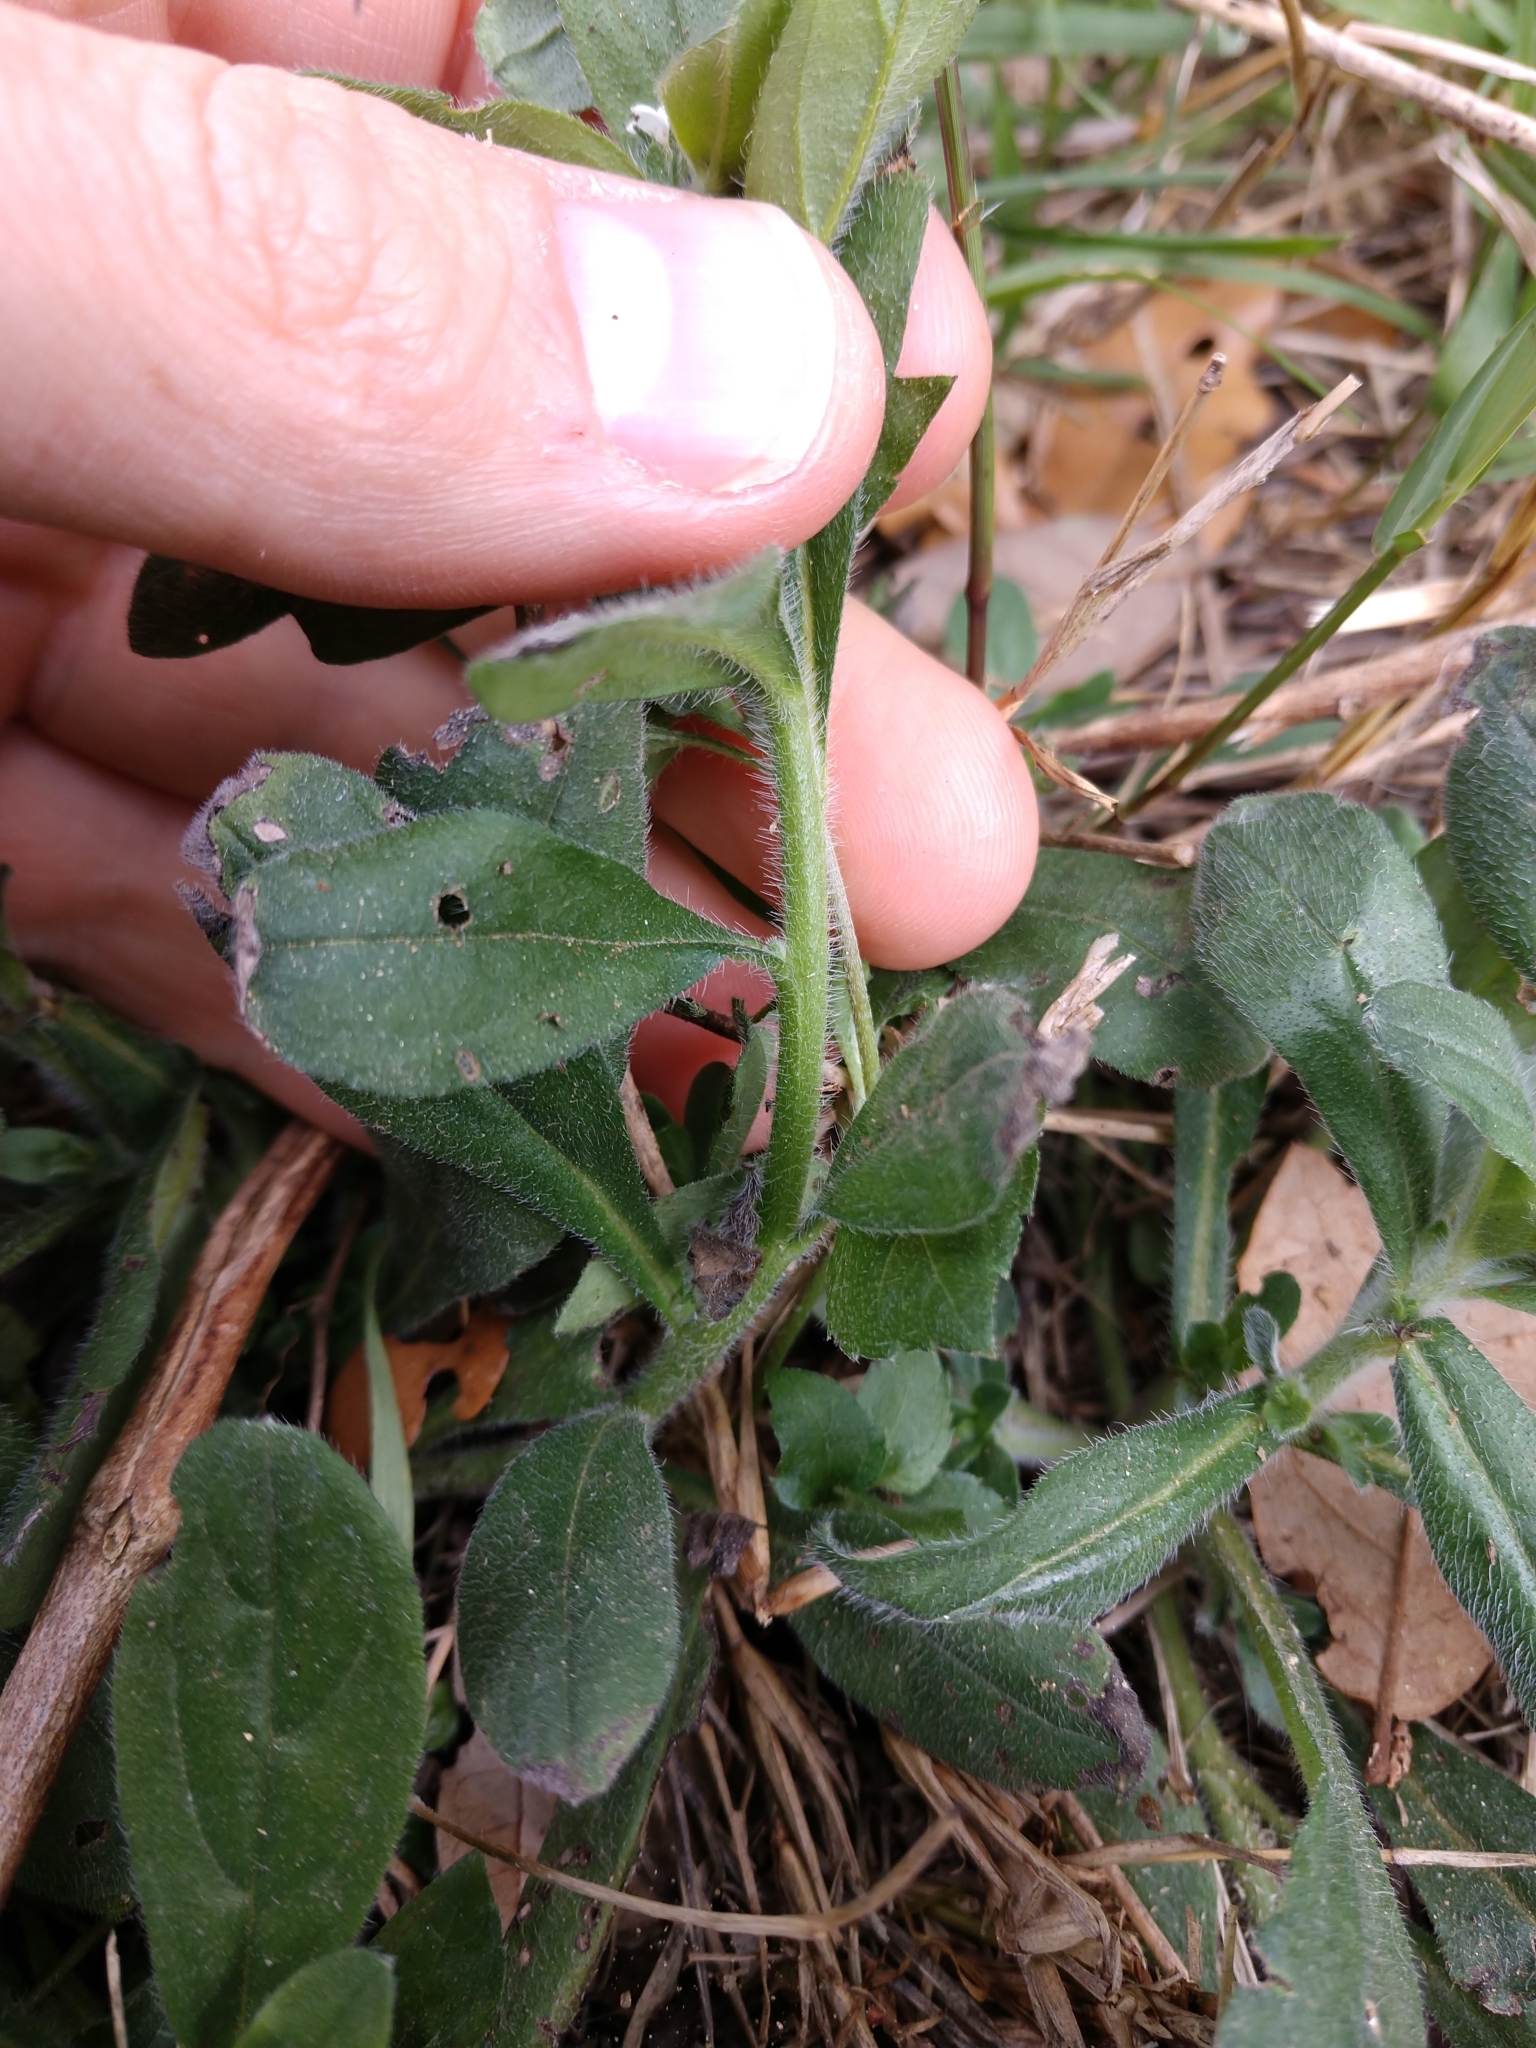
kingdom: Plantae
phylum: Tracheophyta
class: Magnoliopsida
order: Boraginales
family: Boraginaceae
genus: Lithospermum
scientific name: Lithospermum matamorense
